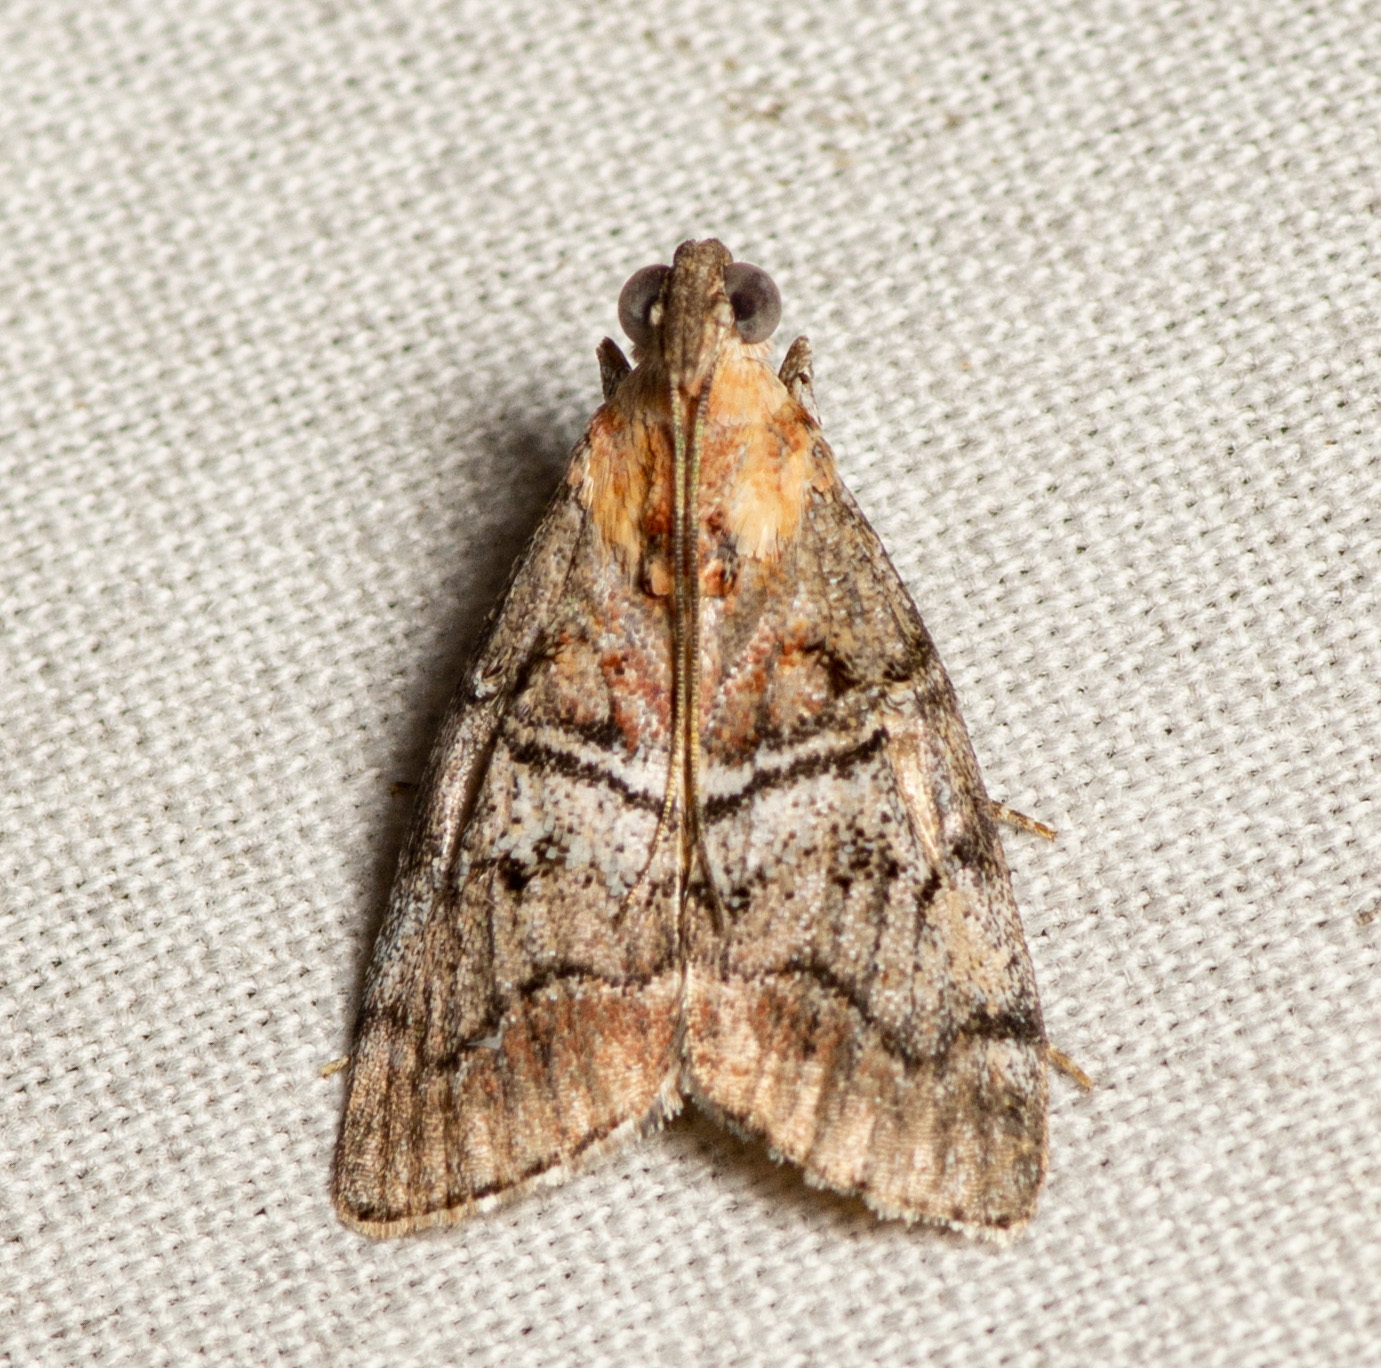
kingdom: Animalia
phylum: Arthropoda
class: Insecta
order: Lepidoptera
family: Pyralidae
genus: Pococera
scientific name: Pococera maritimalis
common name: Gray-banded pococera moth
